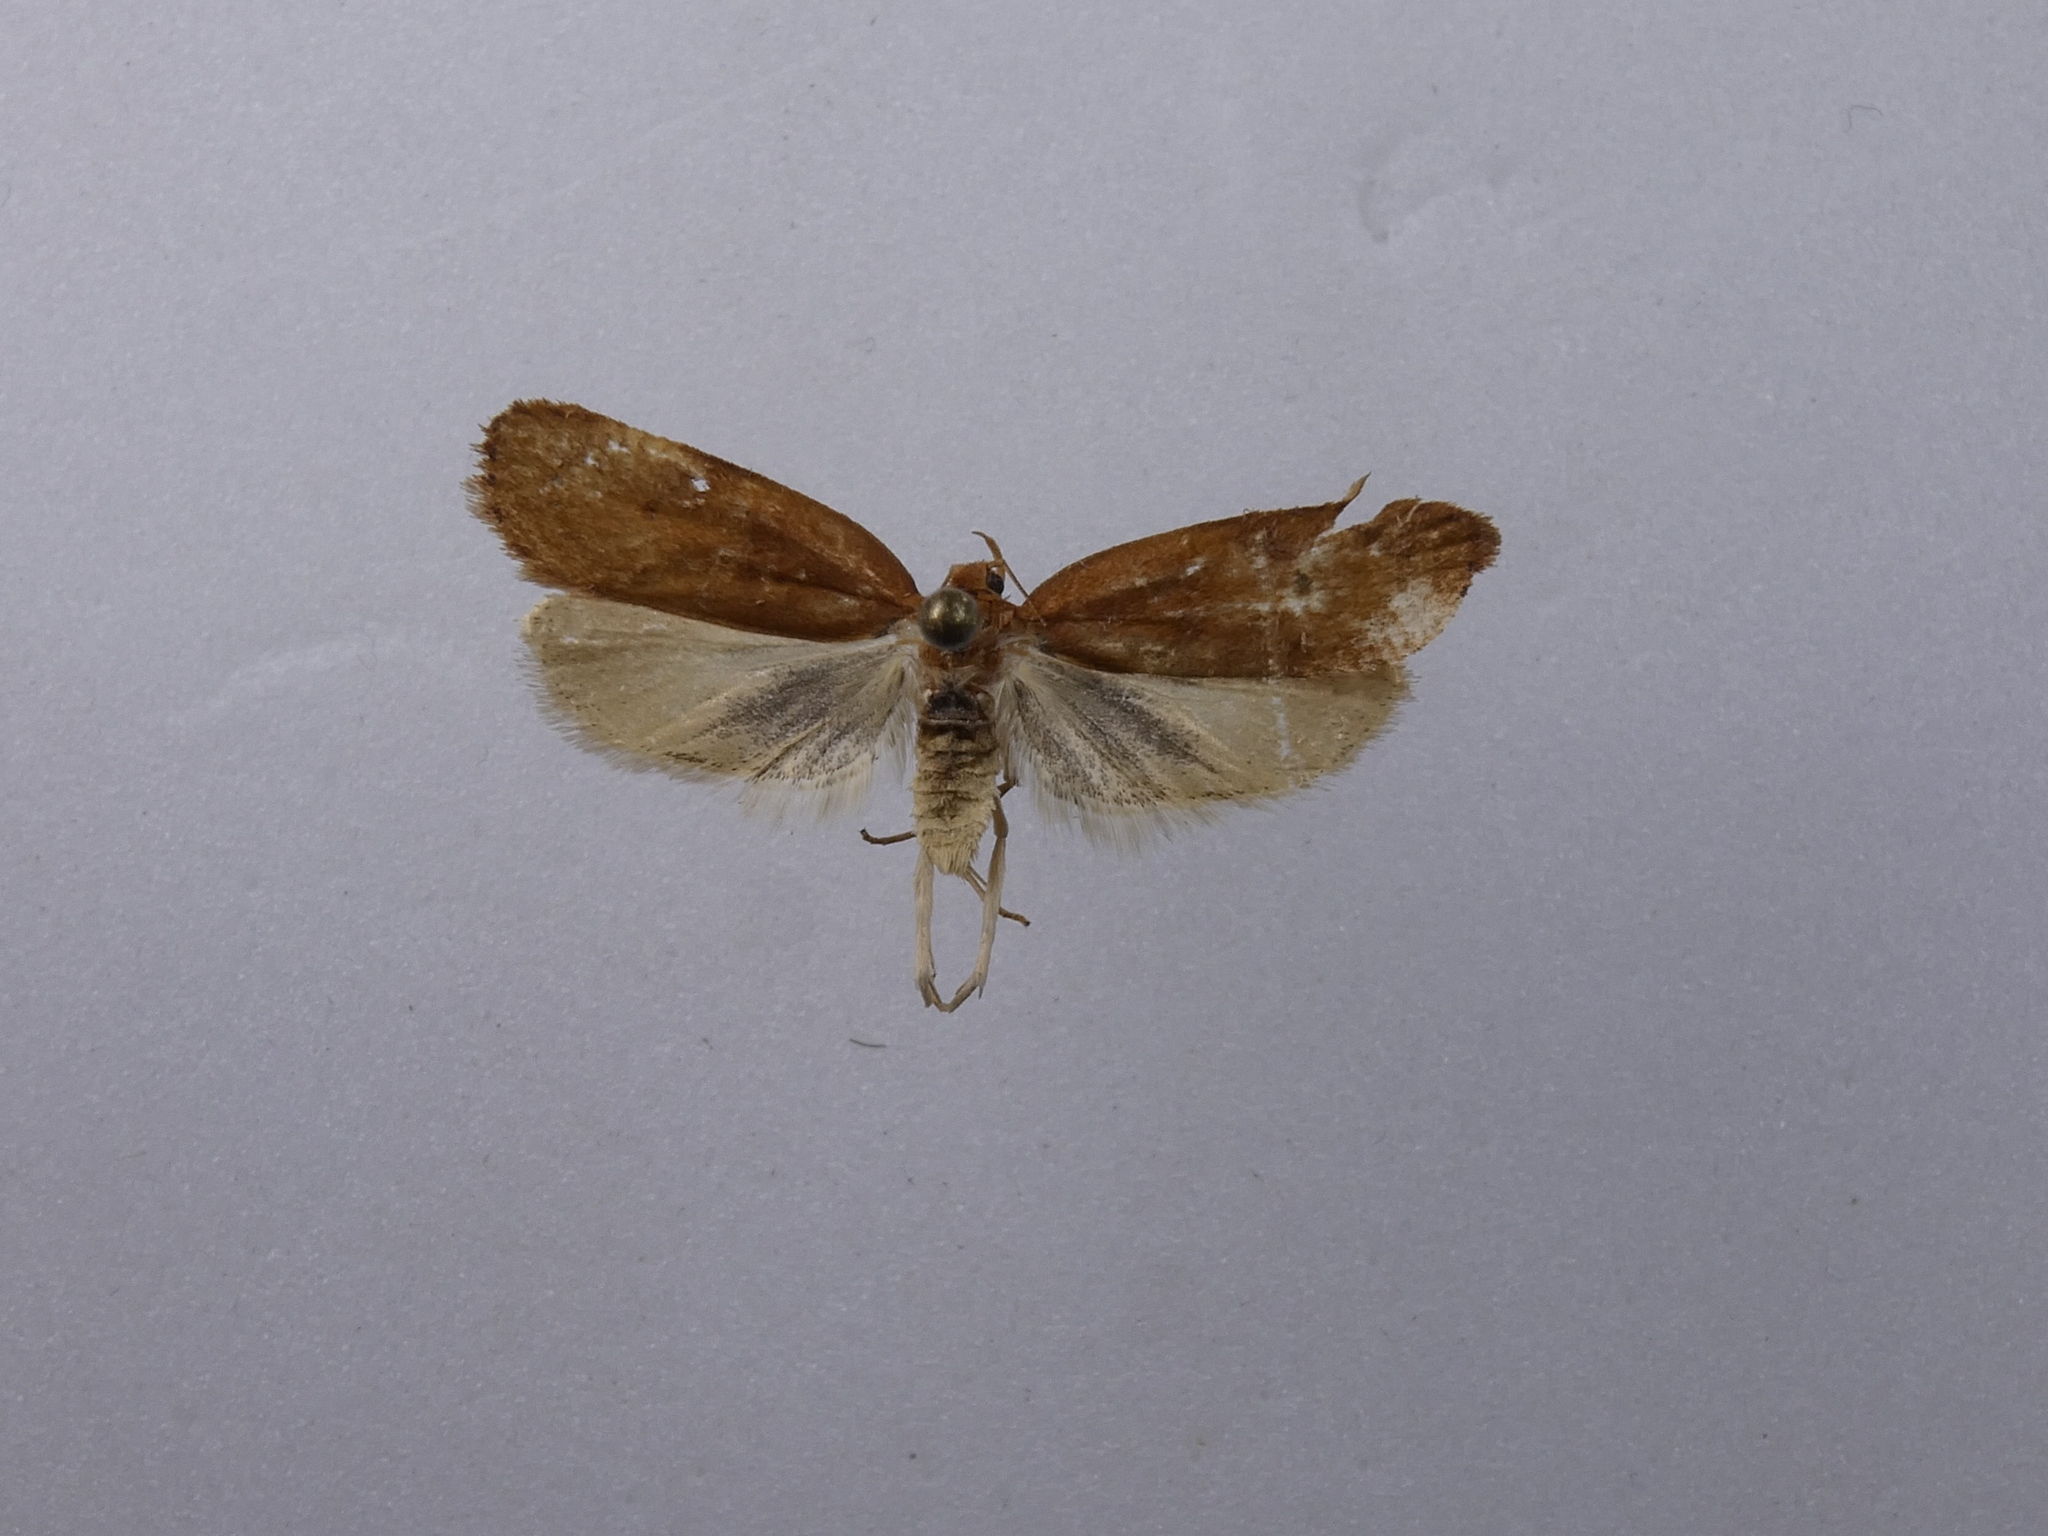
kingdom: Animalia
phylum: Arthropoda
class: Insecta
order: Lepidoptera
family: Depressariidae
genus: Phaeosaces
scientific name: Phaeosaces coarctatella
